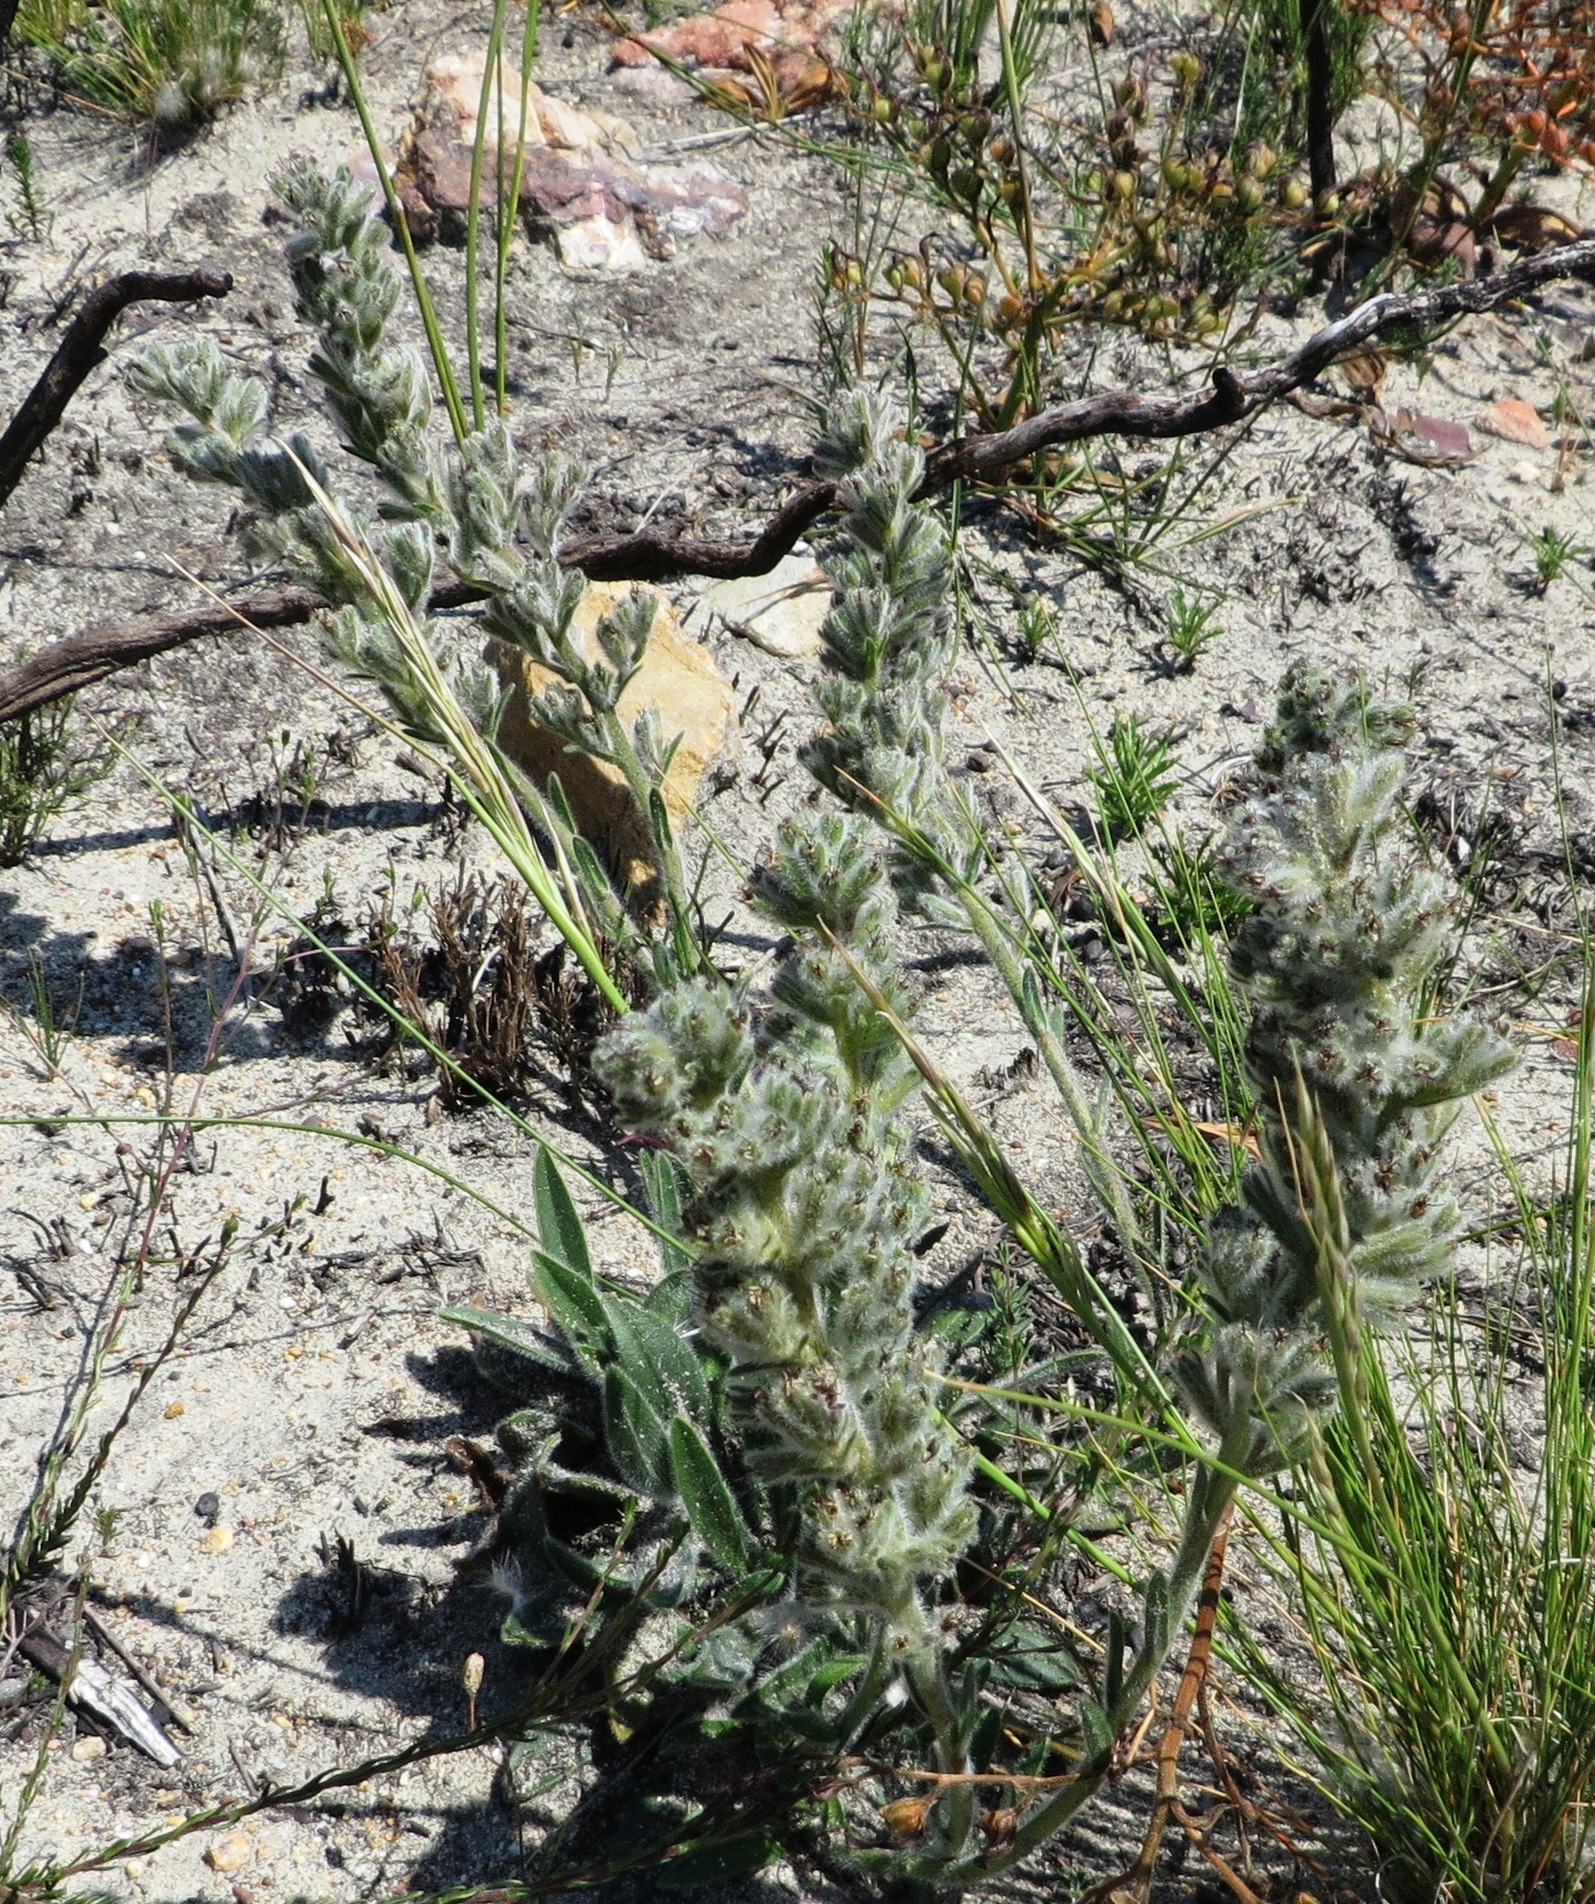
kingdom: Plantae
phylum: Tracheophyta
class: Magnoliopsida
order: Boraginales
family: Boraginaceae
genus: Lobostemon
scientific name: Lobostemon splendens
